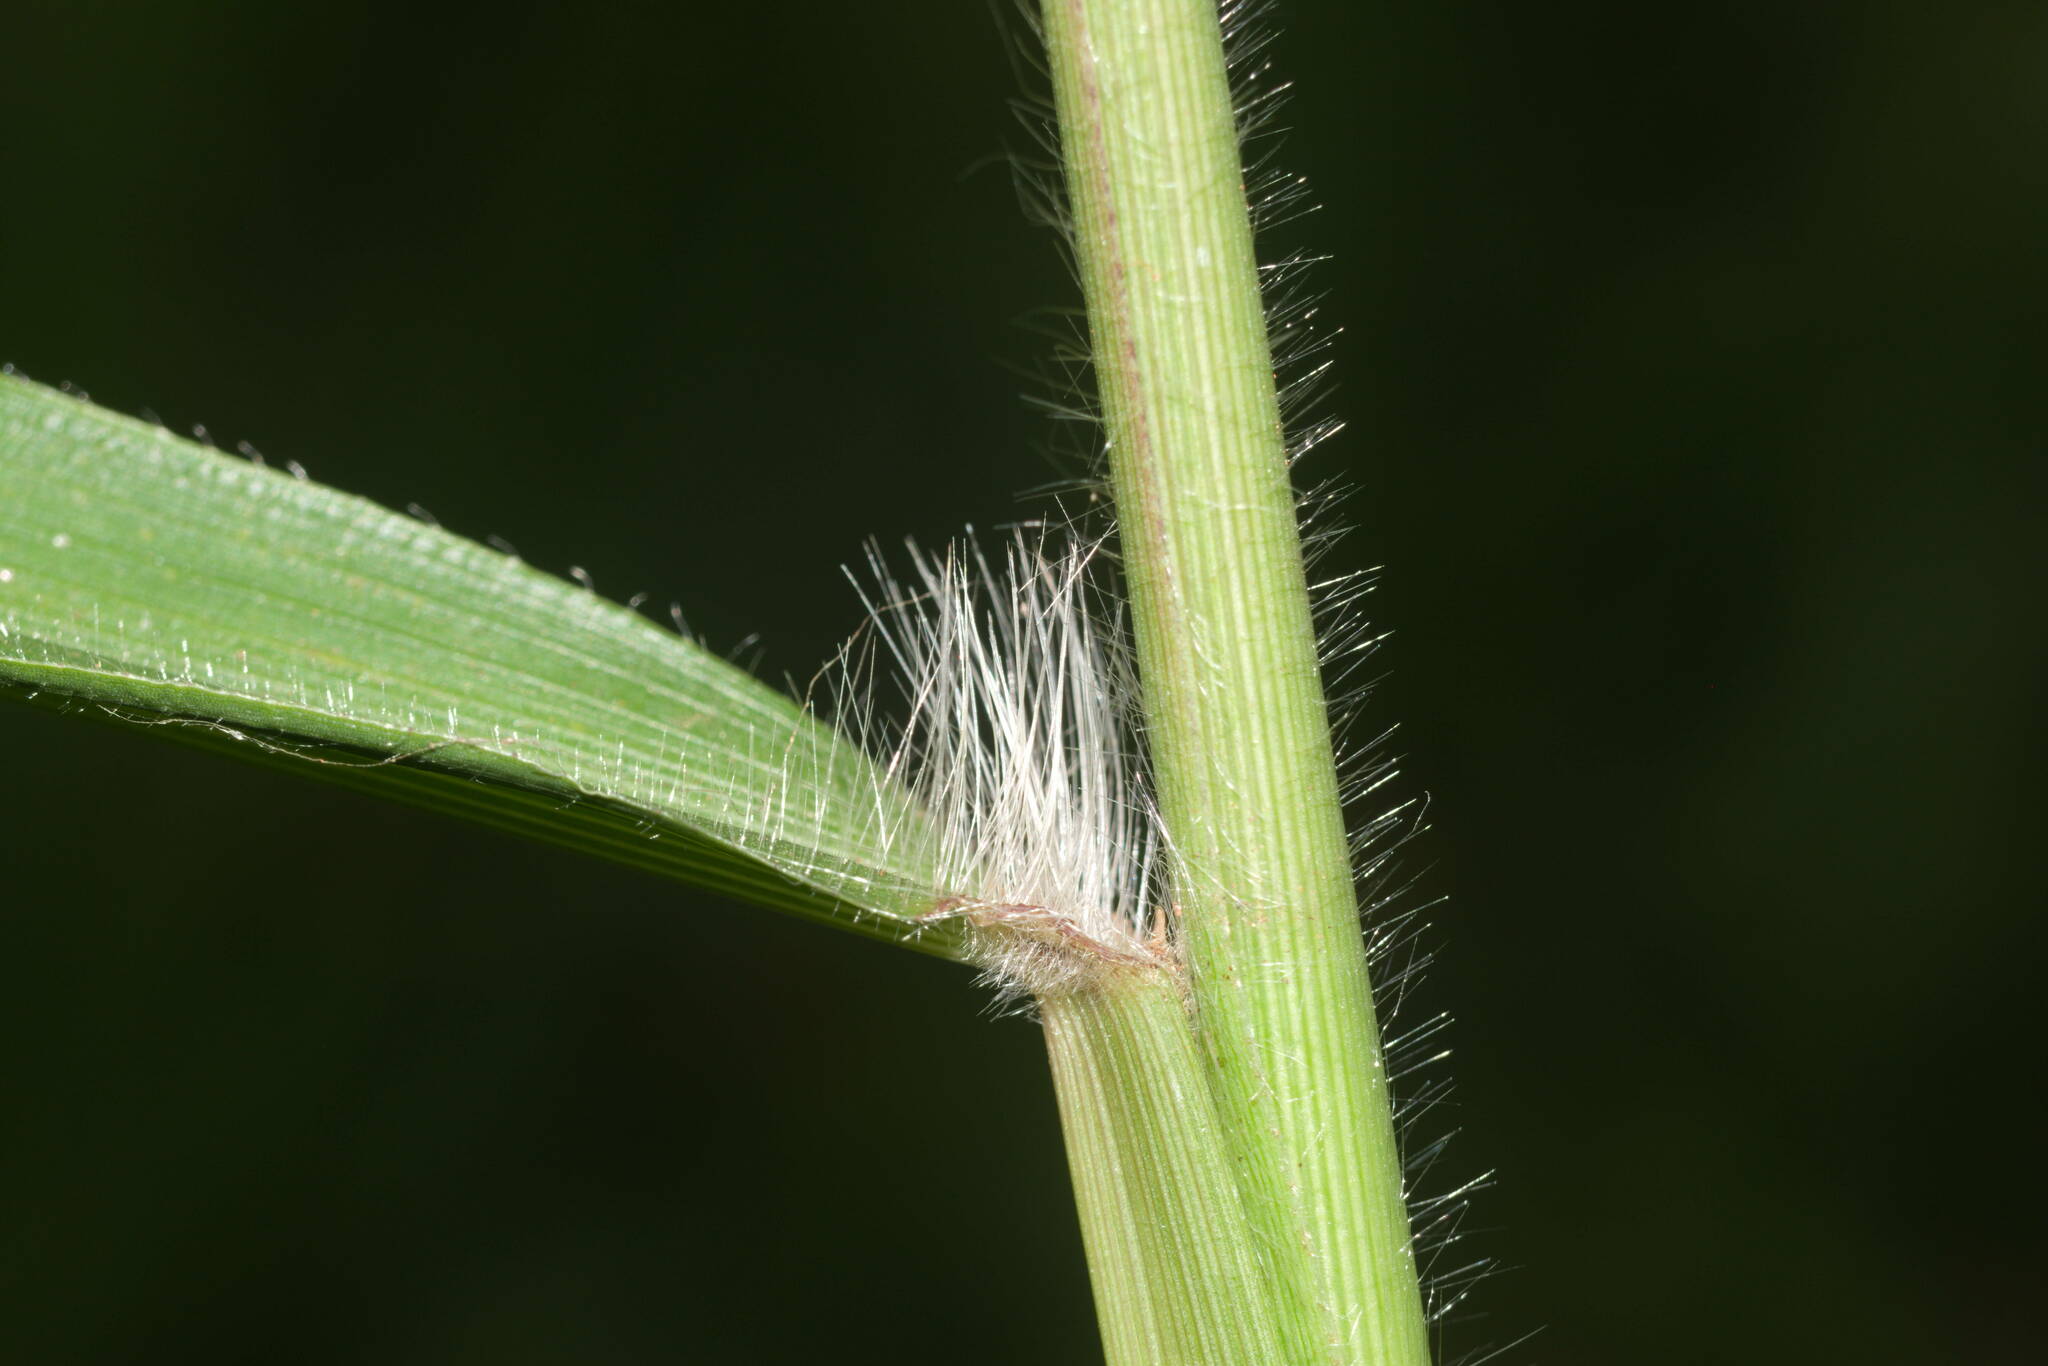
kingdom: Plantae
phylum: Tracheophyta
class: Liliopsida
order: Poales
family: Poaceae
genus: Paspalum
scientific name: Paspalum mandiocanum
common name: Paspalum
